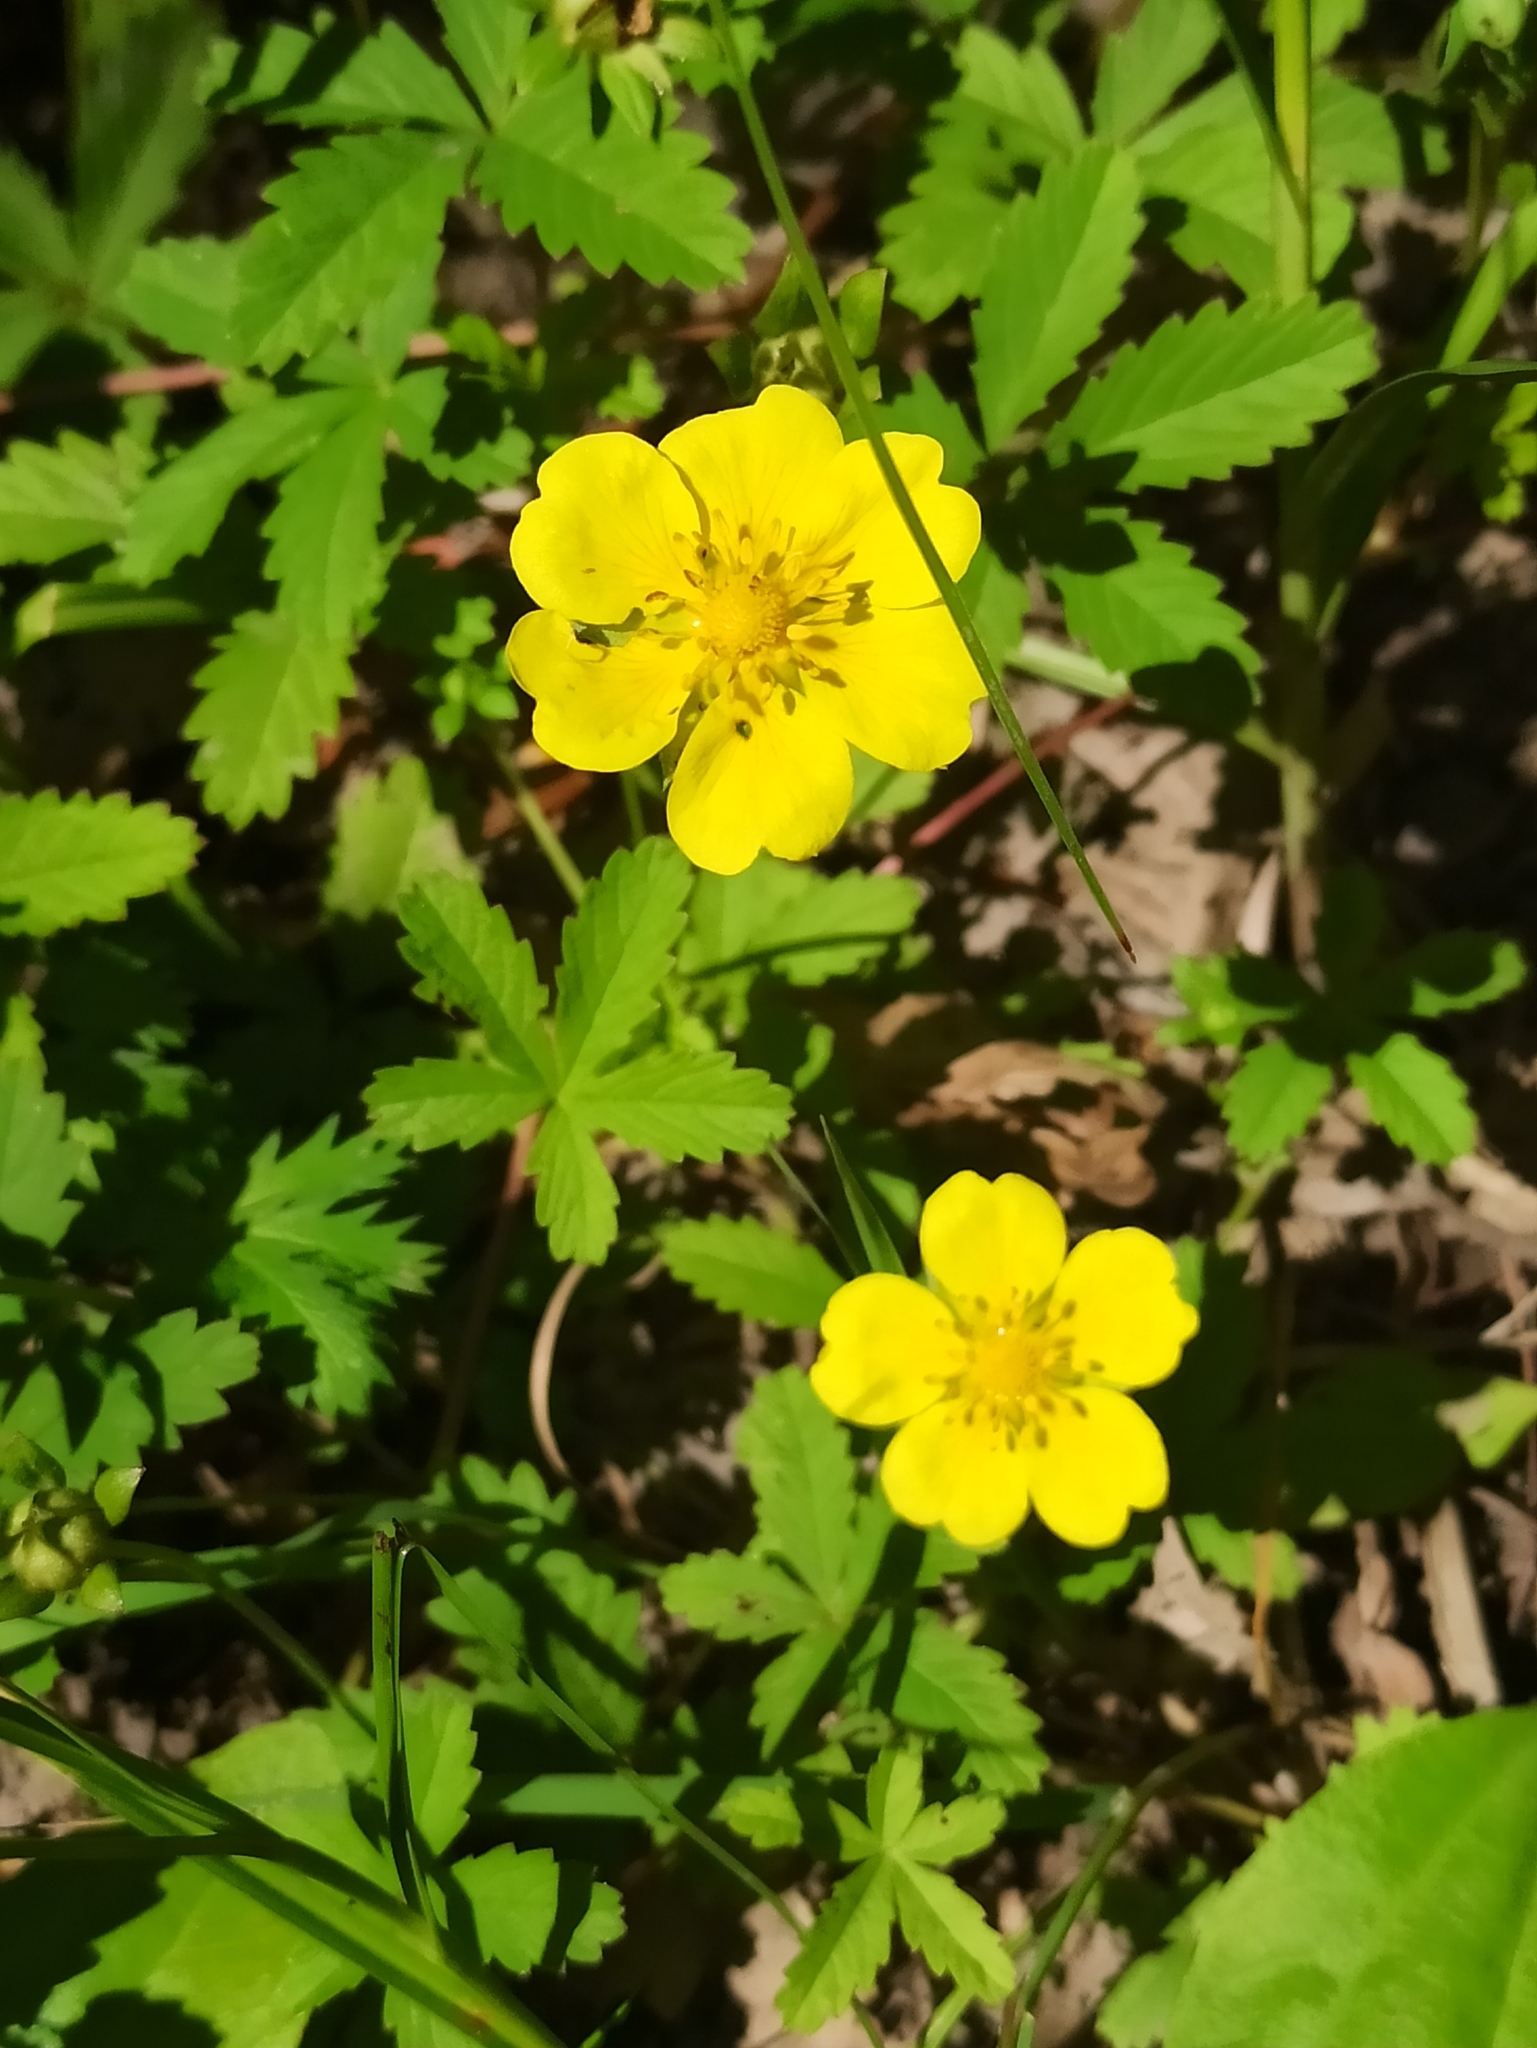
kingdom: Plantae
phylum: Tracheophyta
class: Magnoliopsida
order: Rosales
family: Rosaceae
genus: Potentilla
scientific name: Potentilla reptans
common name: Creeping cinquefoil
